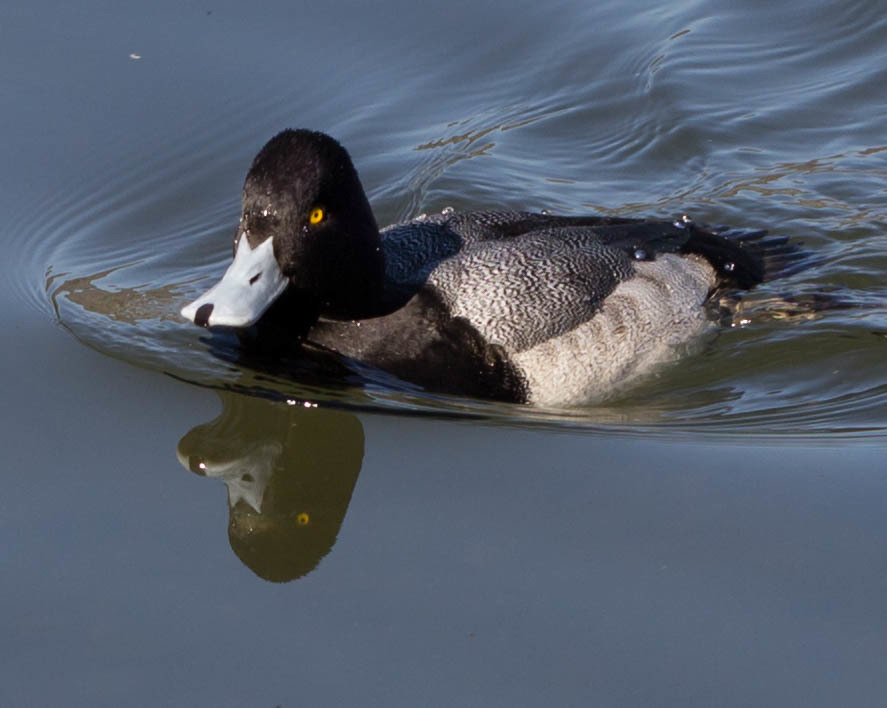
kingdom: Animalia
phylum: Chordata
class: Aves
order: Anseriformes
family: Anatidae
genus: Aythya
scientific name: Aythya affinis
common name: Lesser scaup
